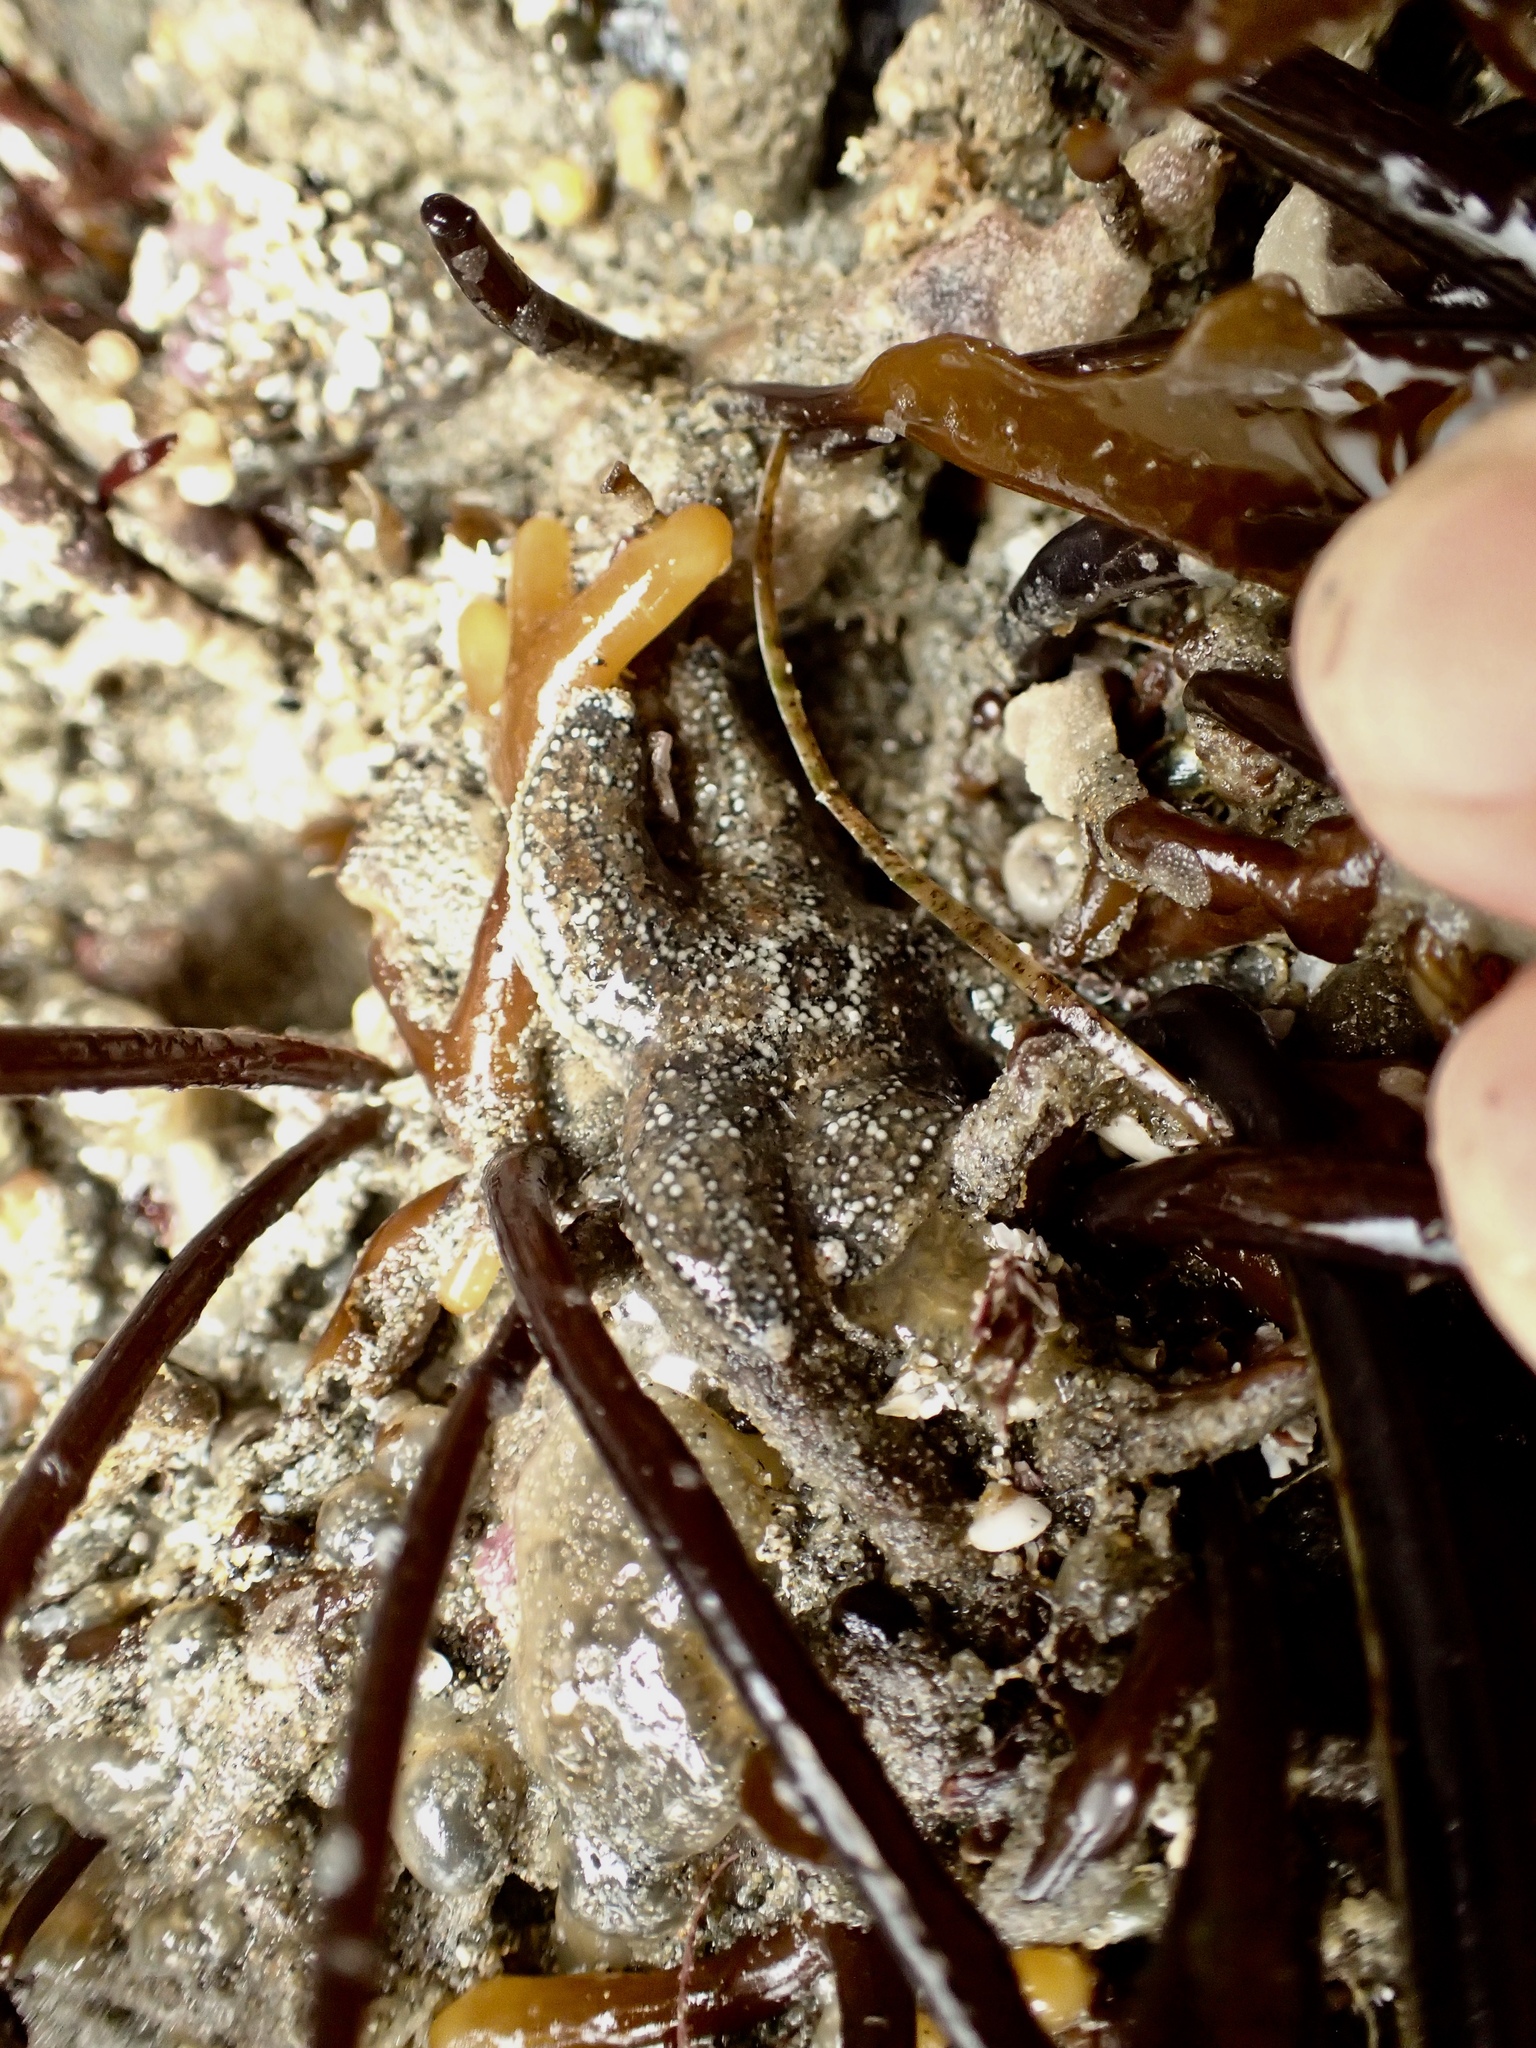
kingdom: Animalia
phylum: Echinodermata
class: Asteroidea
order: Forcipulatida
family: Asteriidae
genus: Pisaster
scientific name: Pisaster ochraceus
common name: Ochre stars
